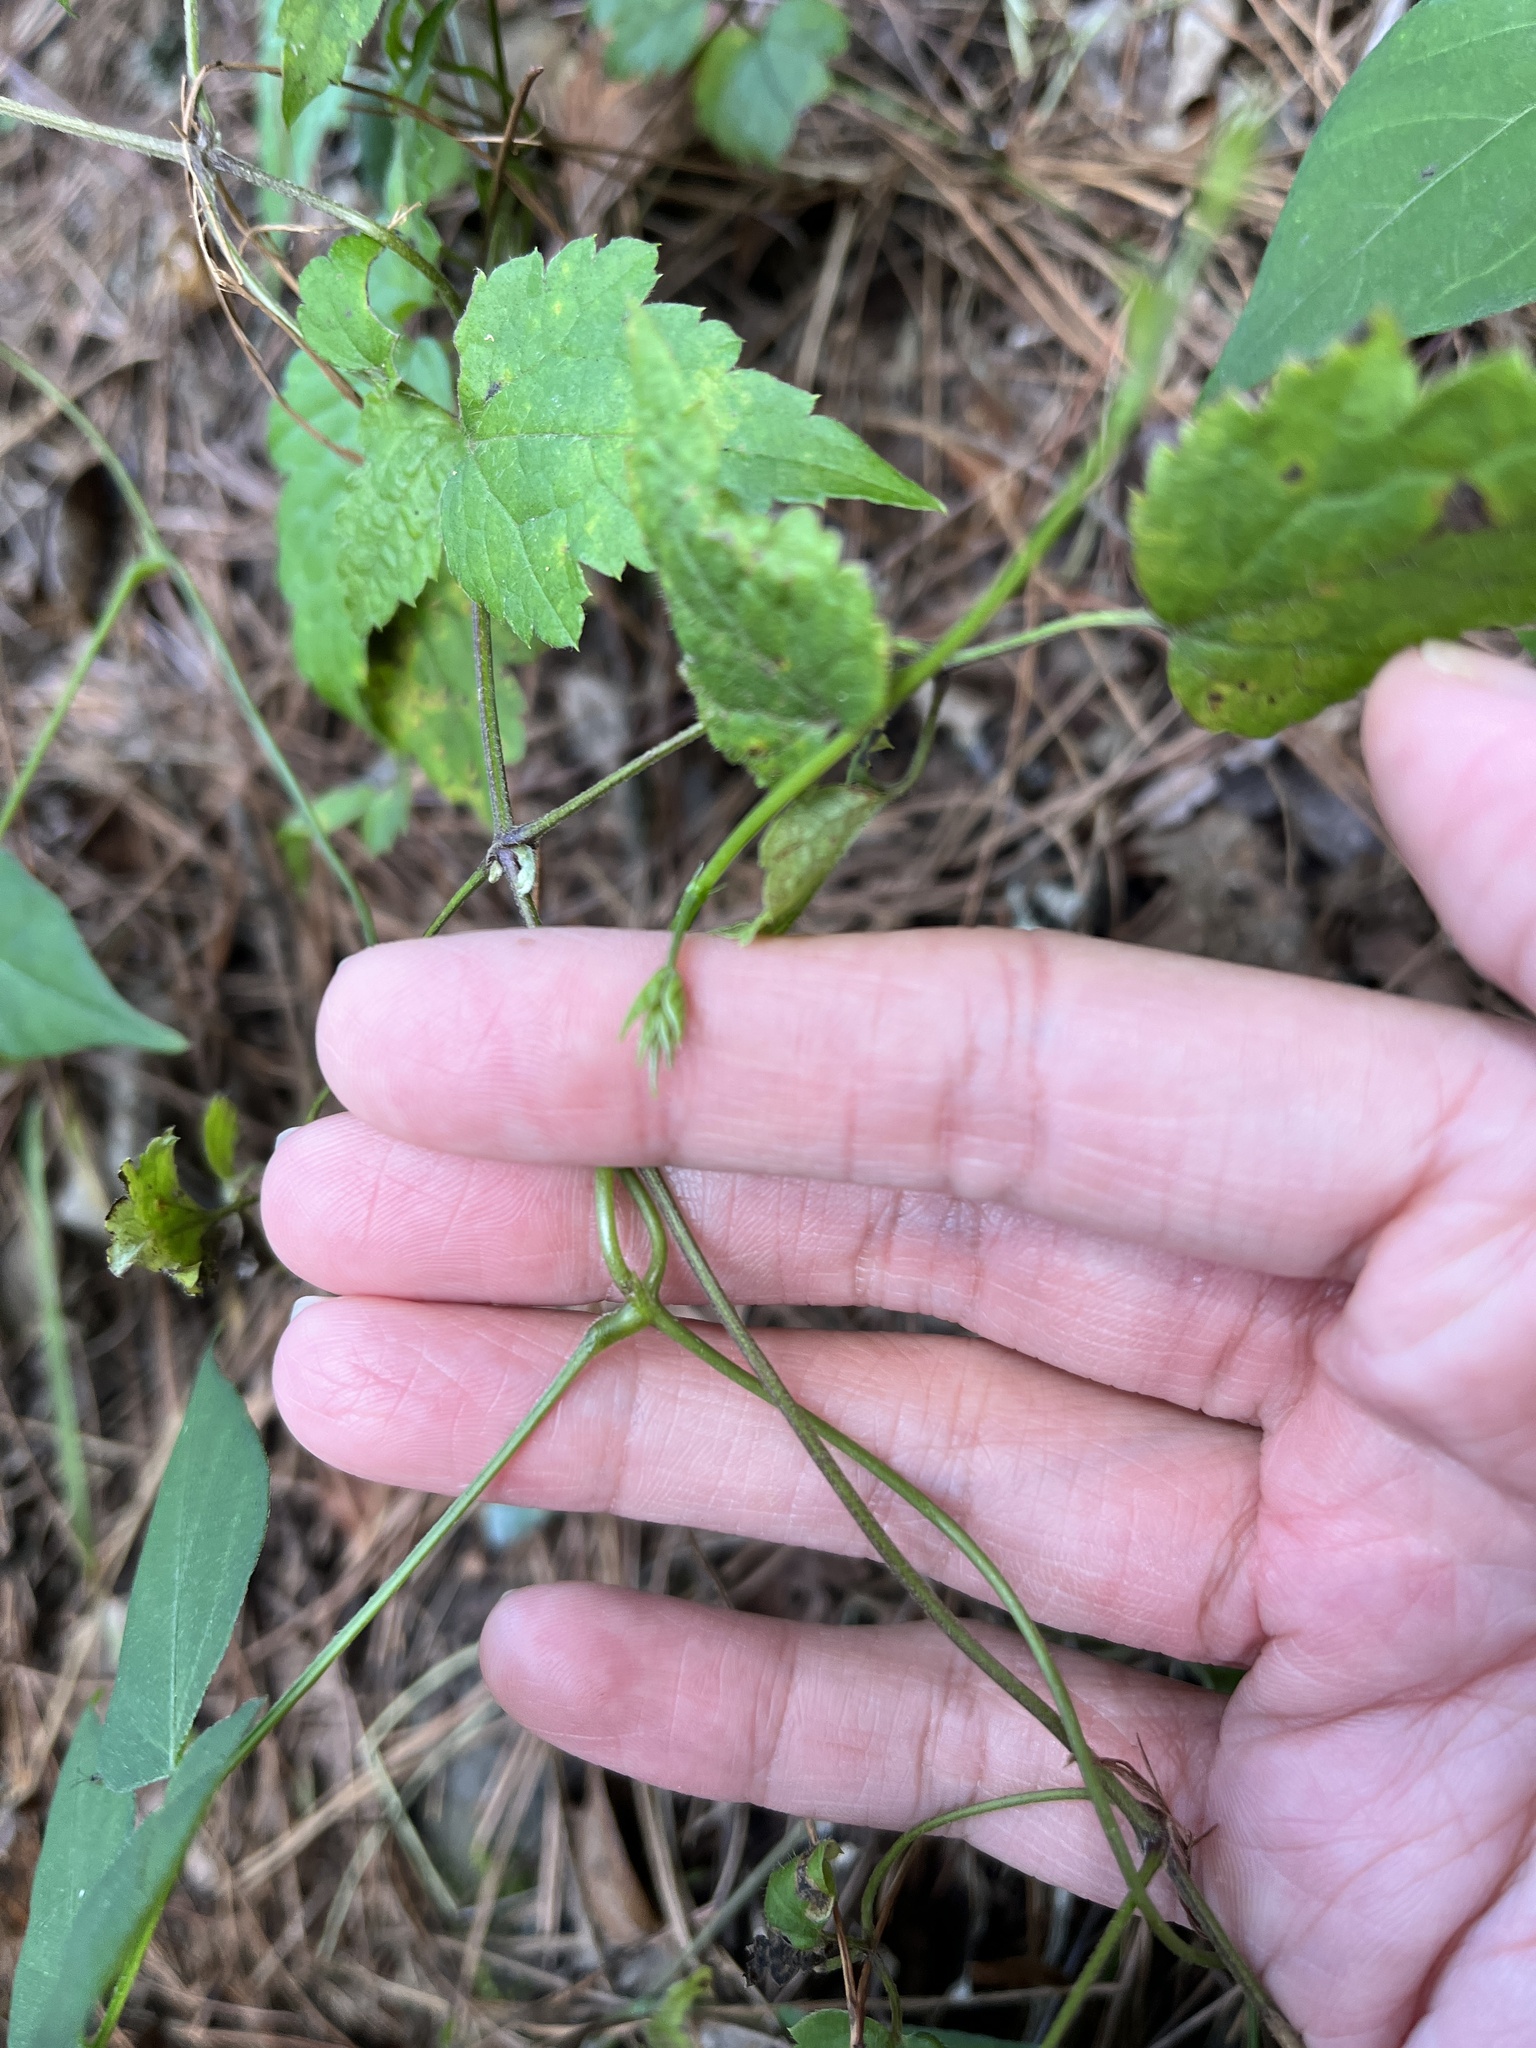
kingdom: Plantae
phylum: Tracheophyta
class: Magnoliopsida
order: Fabales
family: Fabaceae
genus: Apios
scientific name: Apios fortunei
